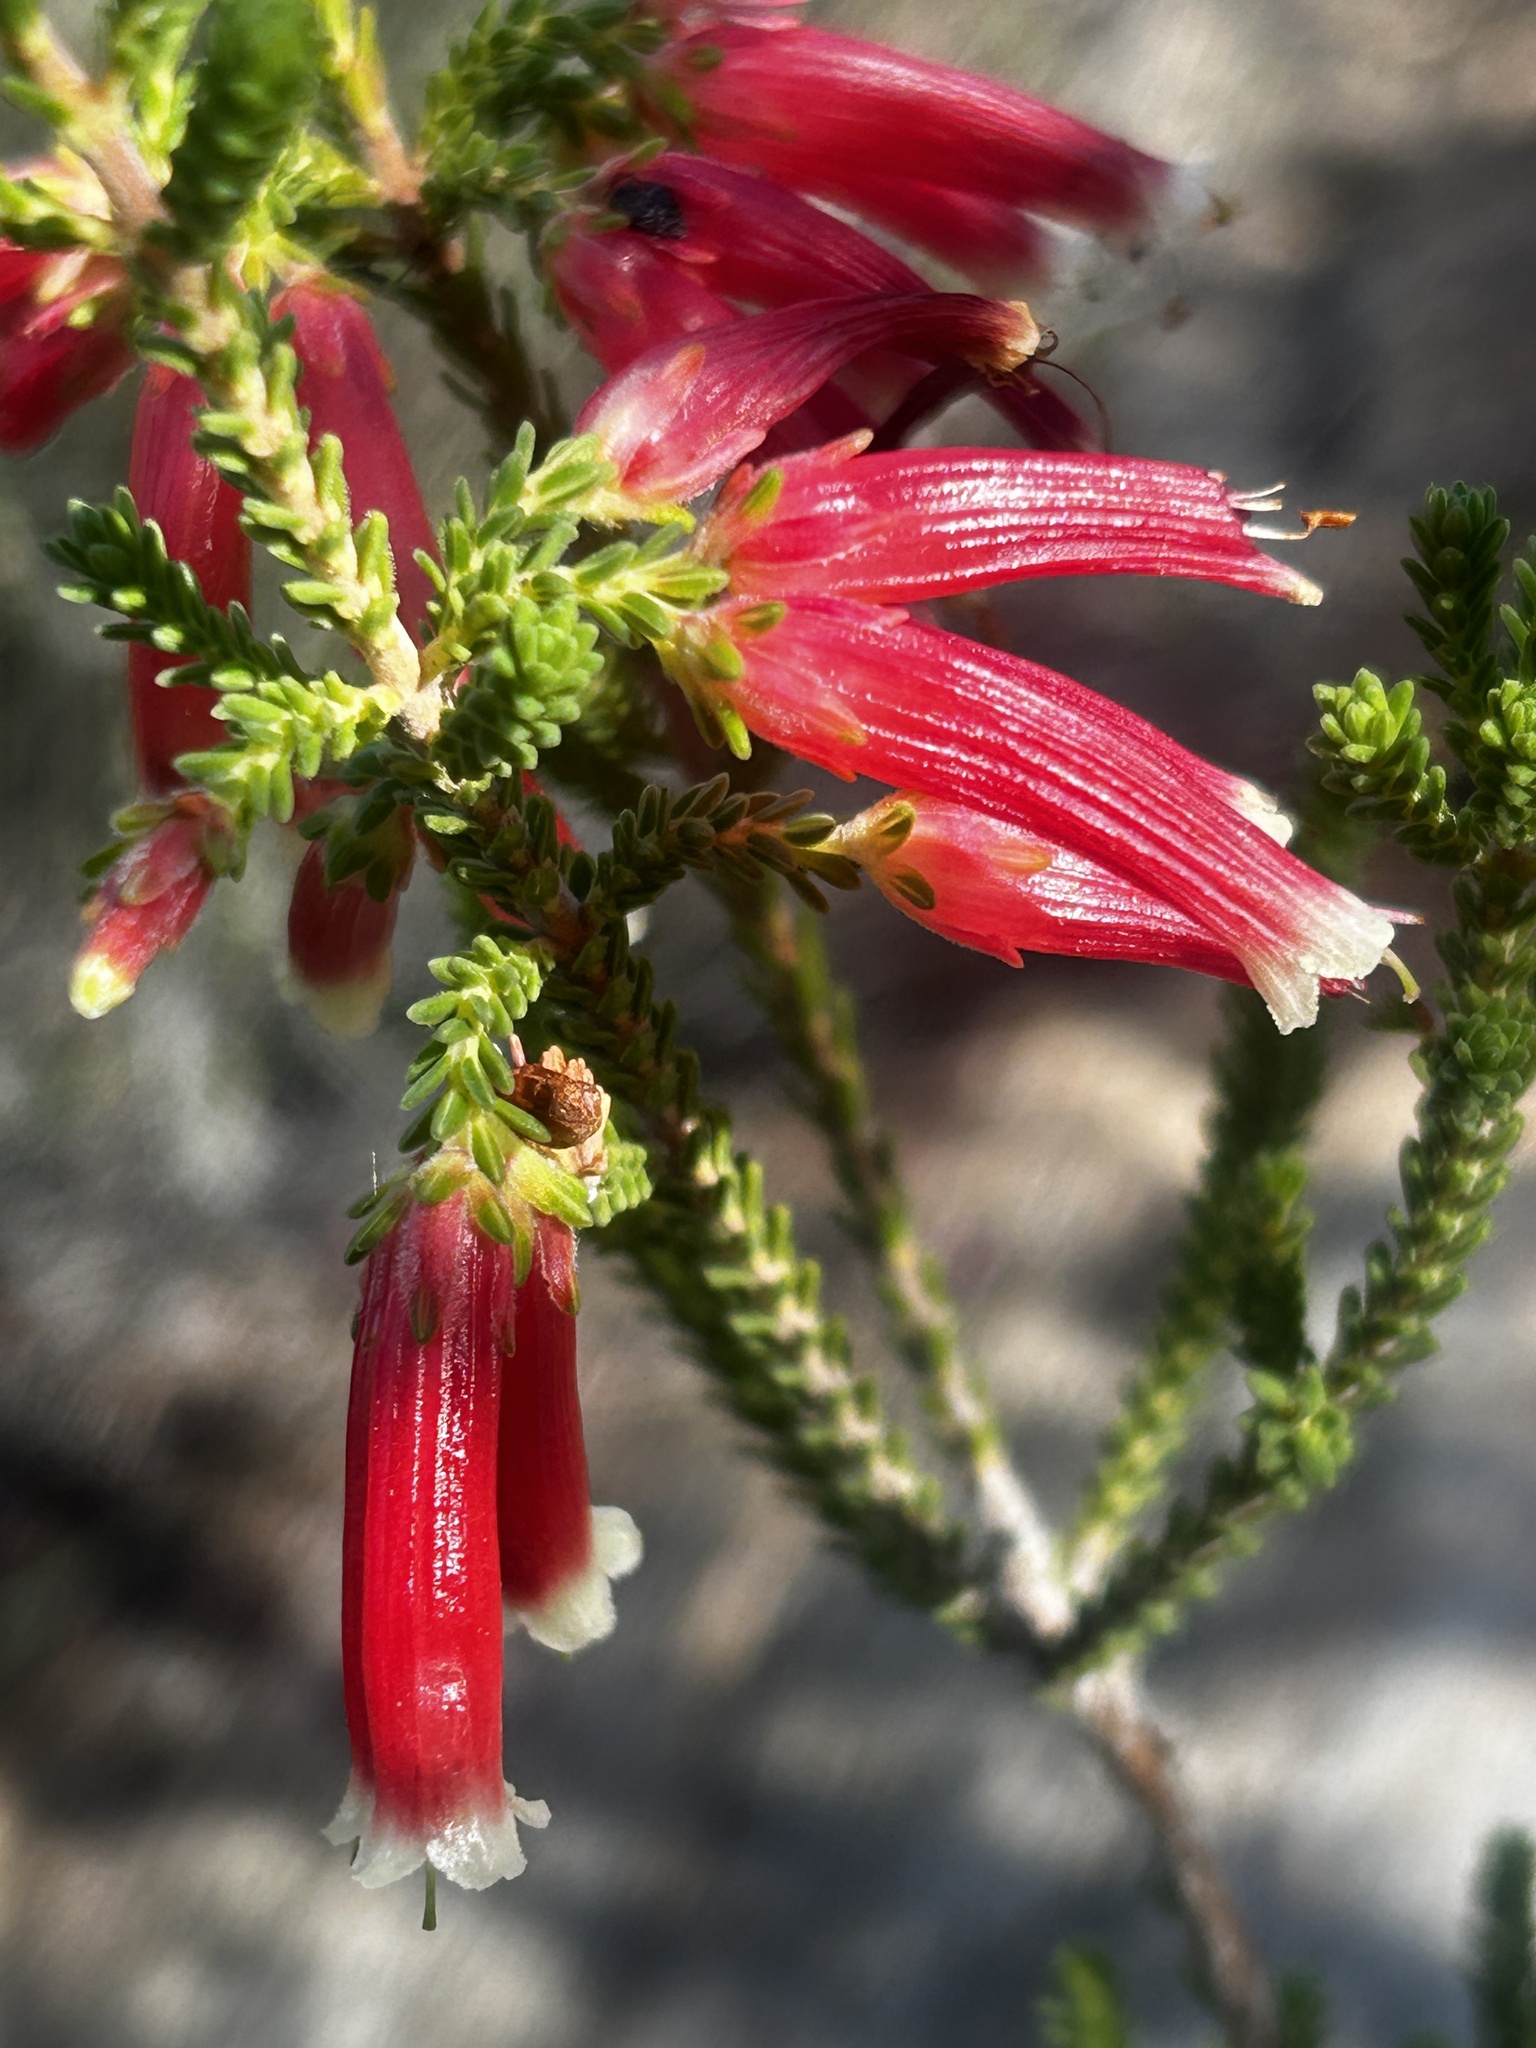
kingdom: Plantae
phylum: Tracheophyta
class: Magnoliopsida
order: Ericales
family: Ericaceae
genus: Erica
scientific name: Erica versicolor
